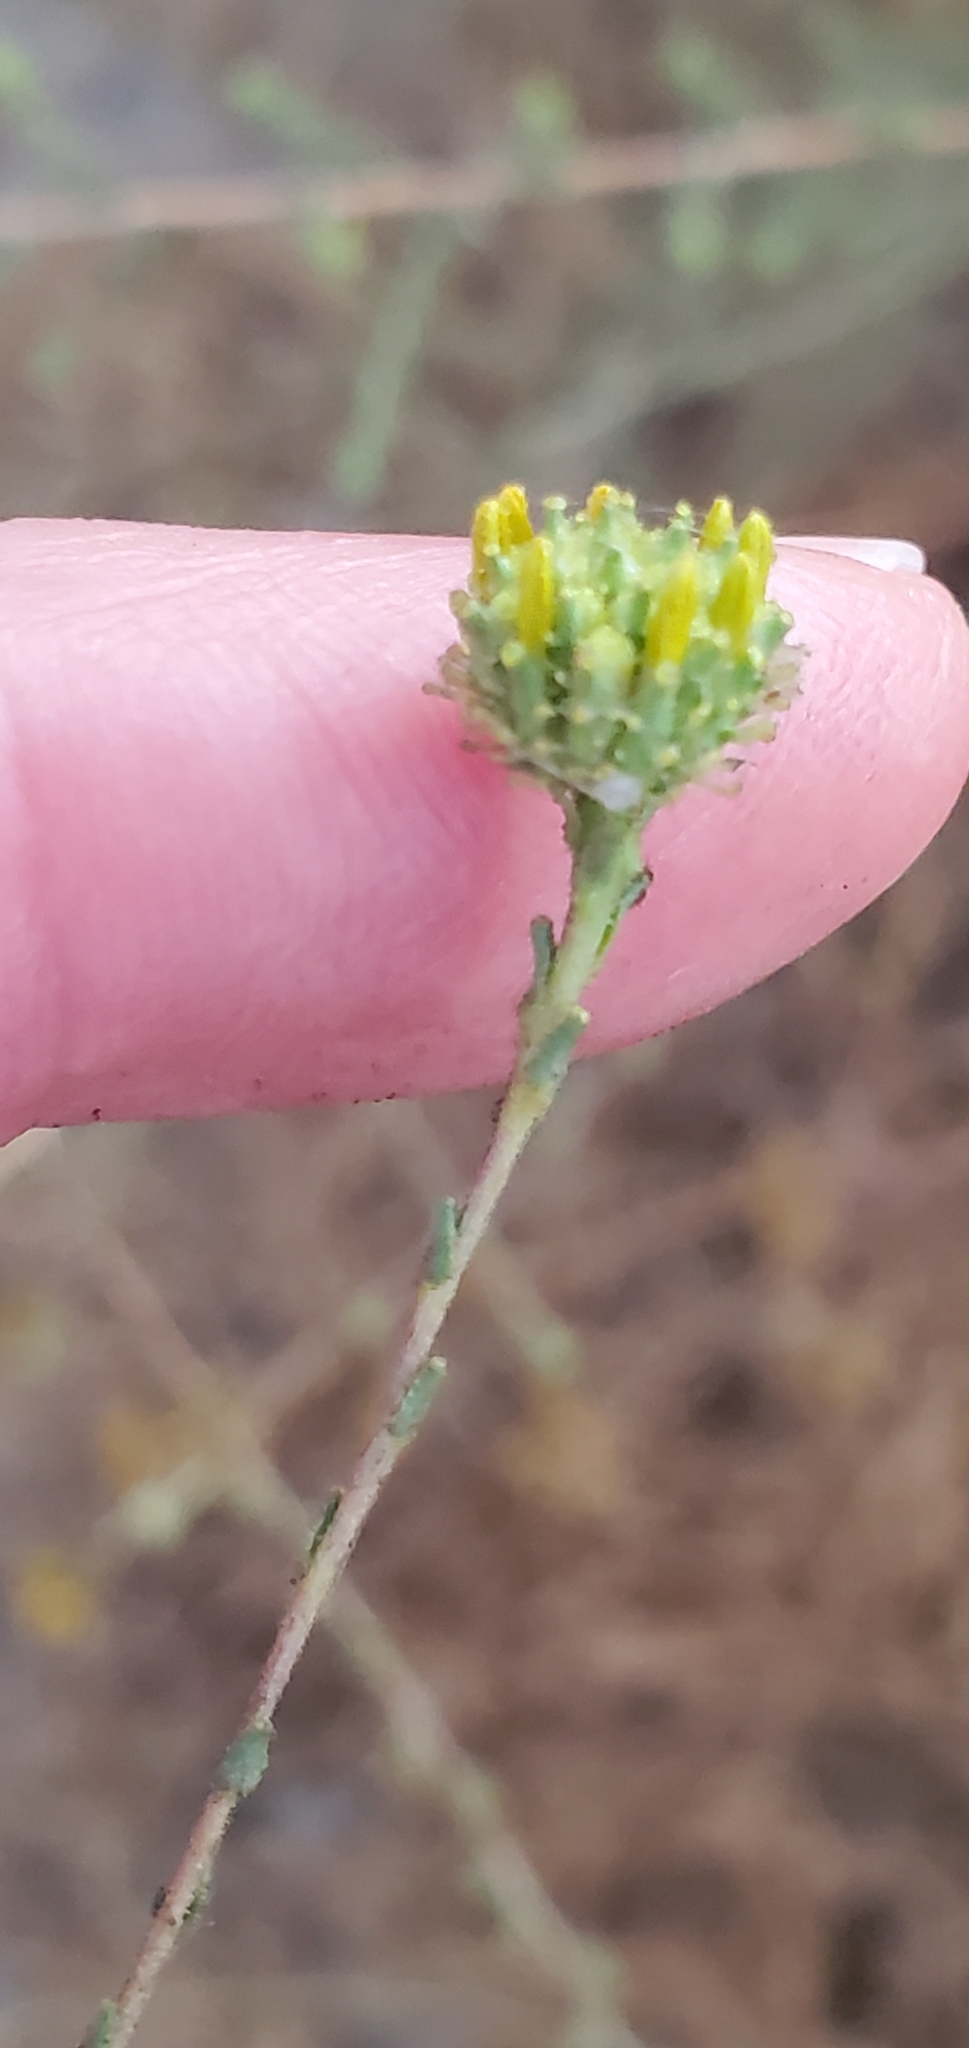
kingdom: Plantae
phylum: Tracheophyta
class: Magnoliopsida
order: Asterales
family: Asteraceae
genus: Holocarpha
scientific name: Holocarpha virgata
